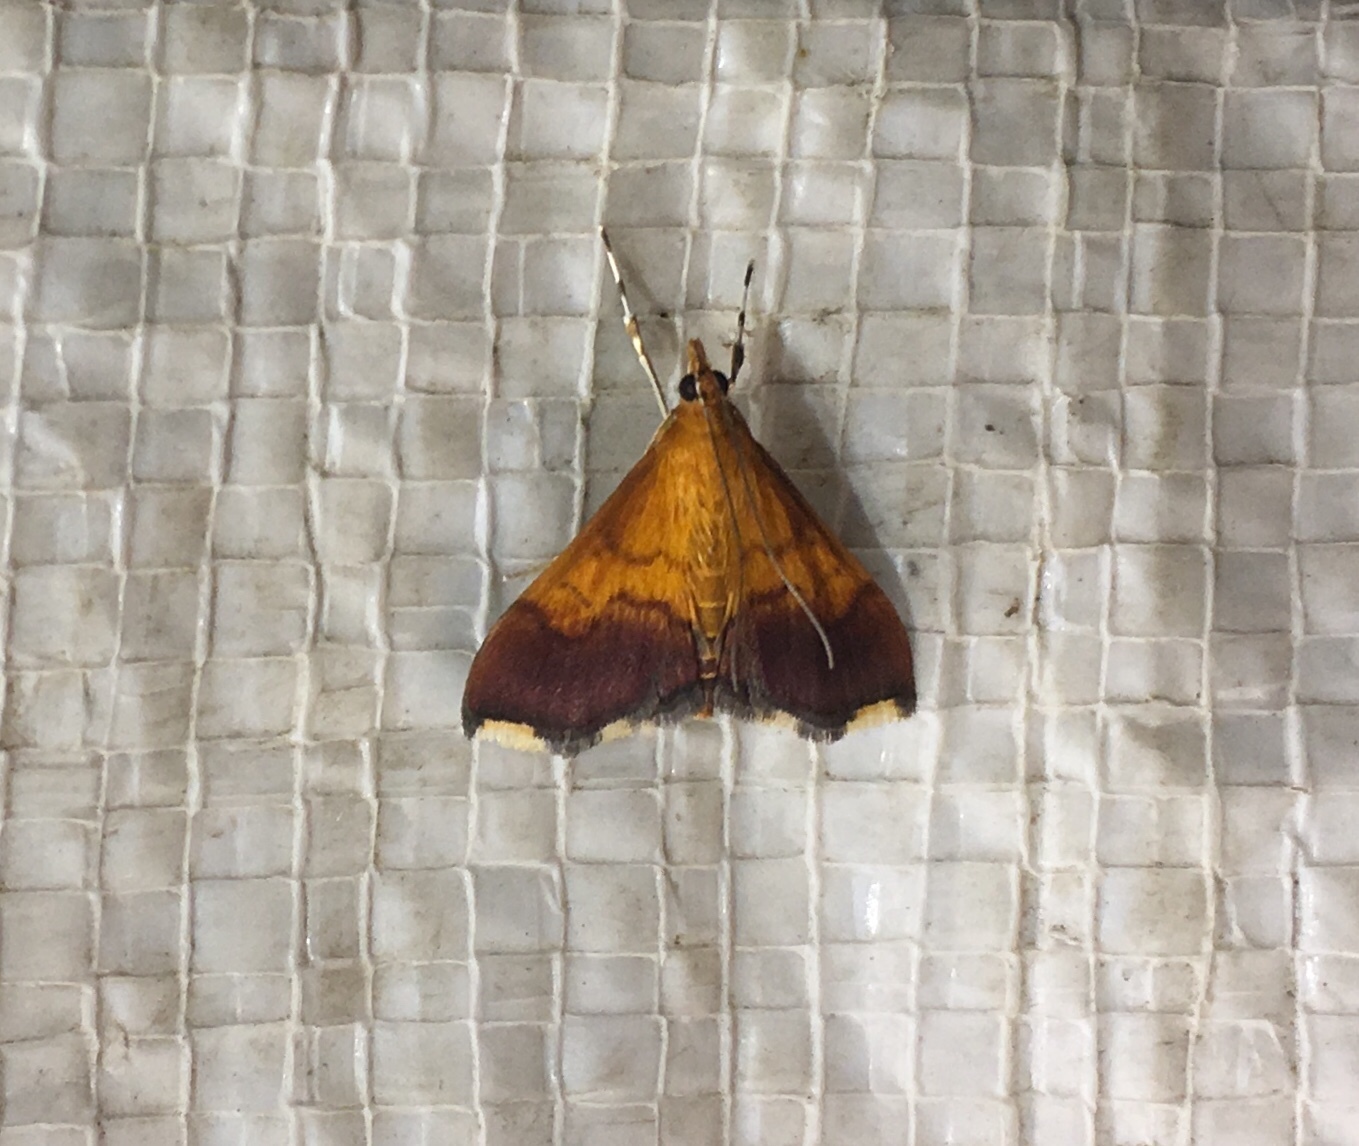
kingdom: Animalia
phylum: Arthropoda
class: Insecta
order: Lepidoptera
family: Crambidae
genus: Pyrausta
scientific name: Pyrausta bicoloralis
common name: Bicolored pyrausta moth
